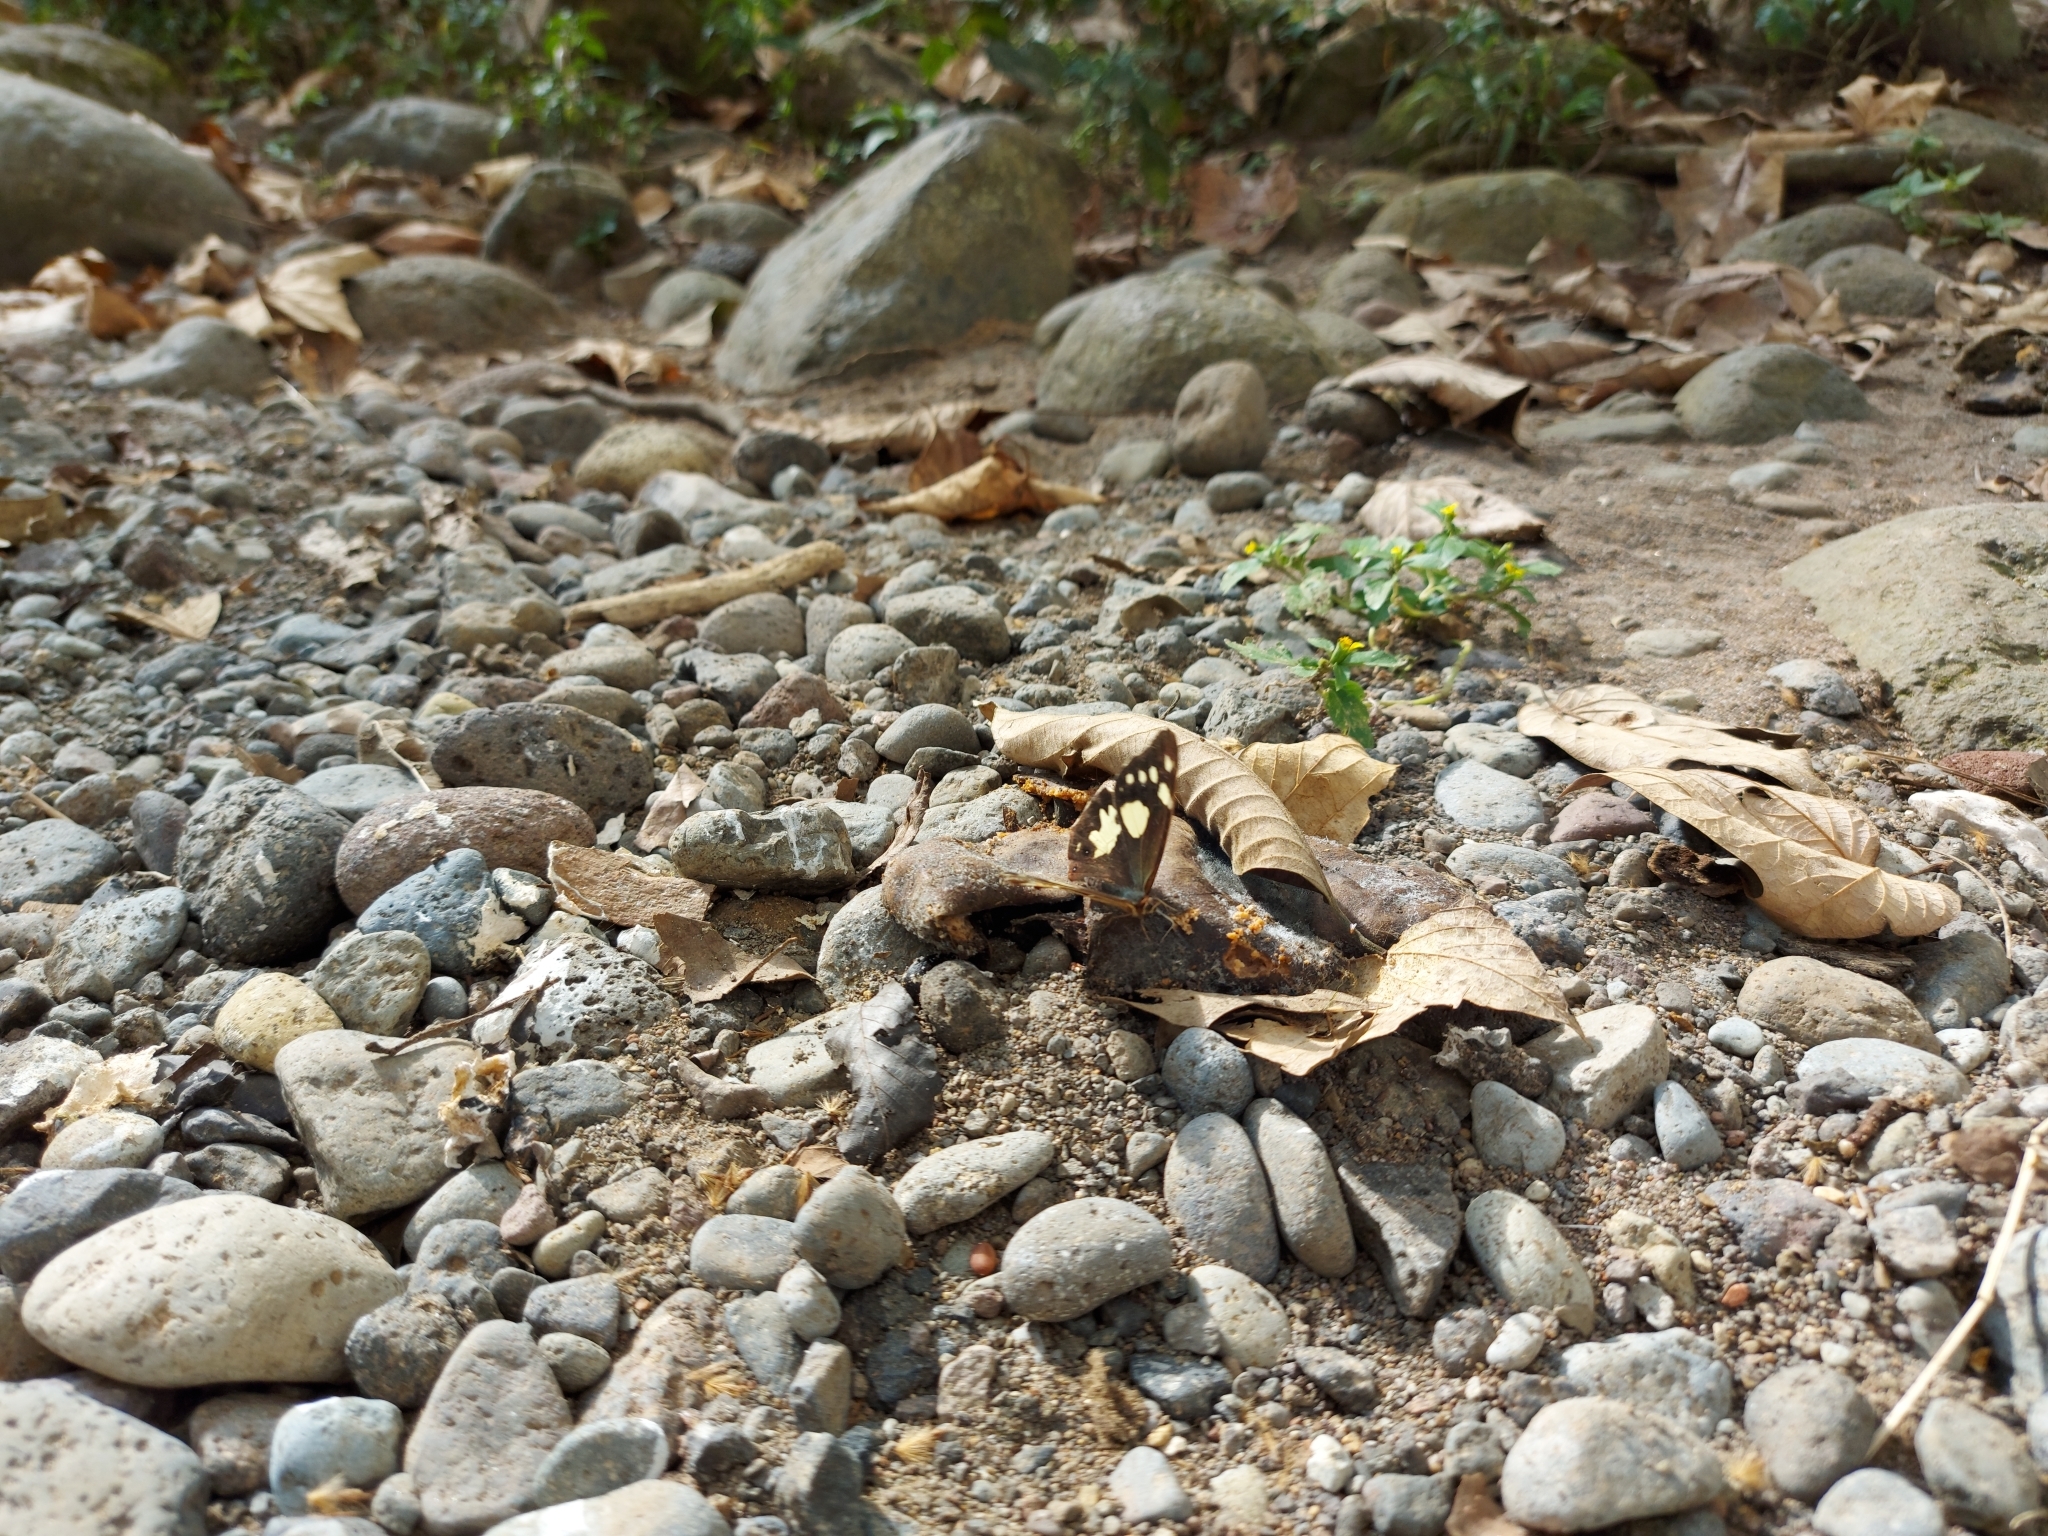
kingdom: Animalia
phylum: Arthropoda
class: Insecta
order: Lepidoptera
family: Nymphalidae
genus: Oxeoschistus
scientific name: Oxeoschistus tauropolis
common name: Starred oxeo
